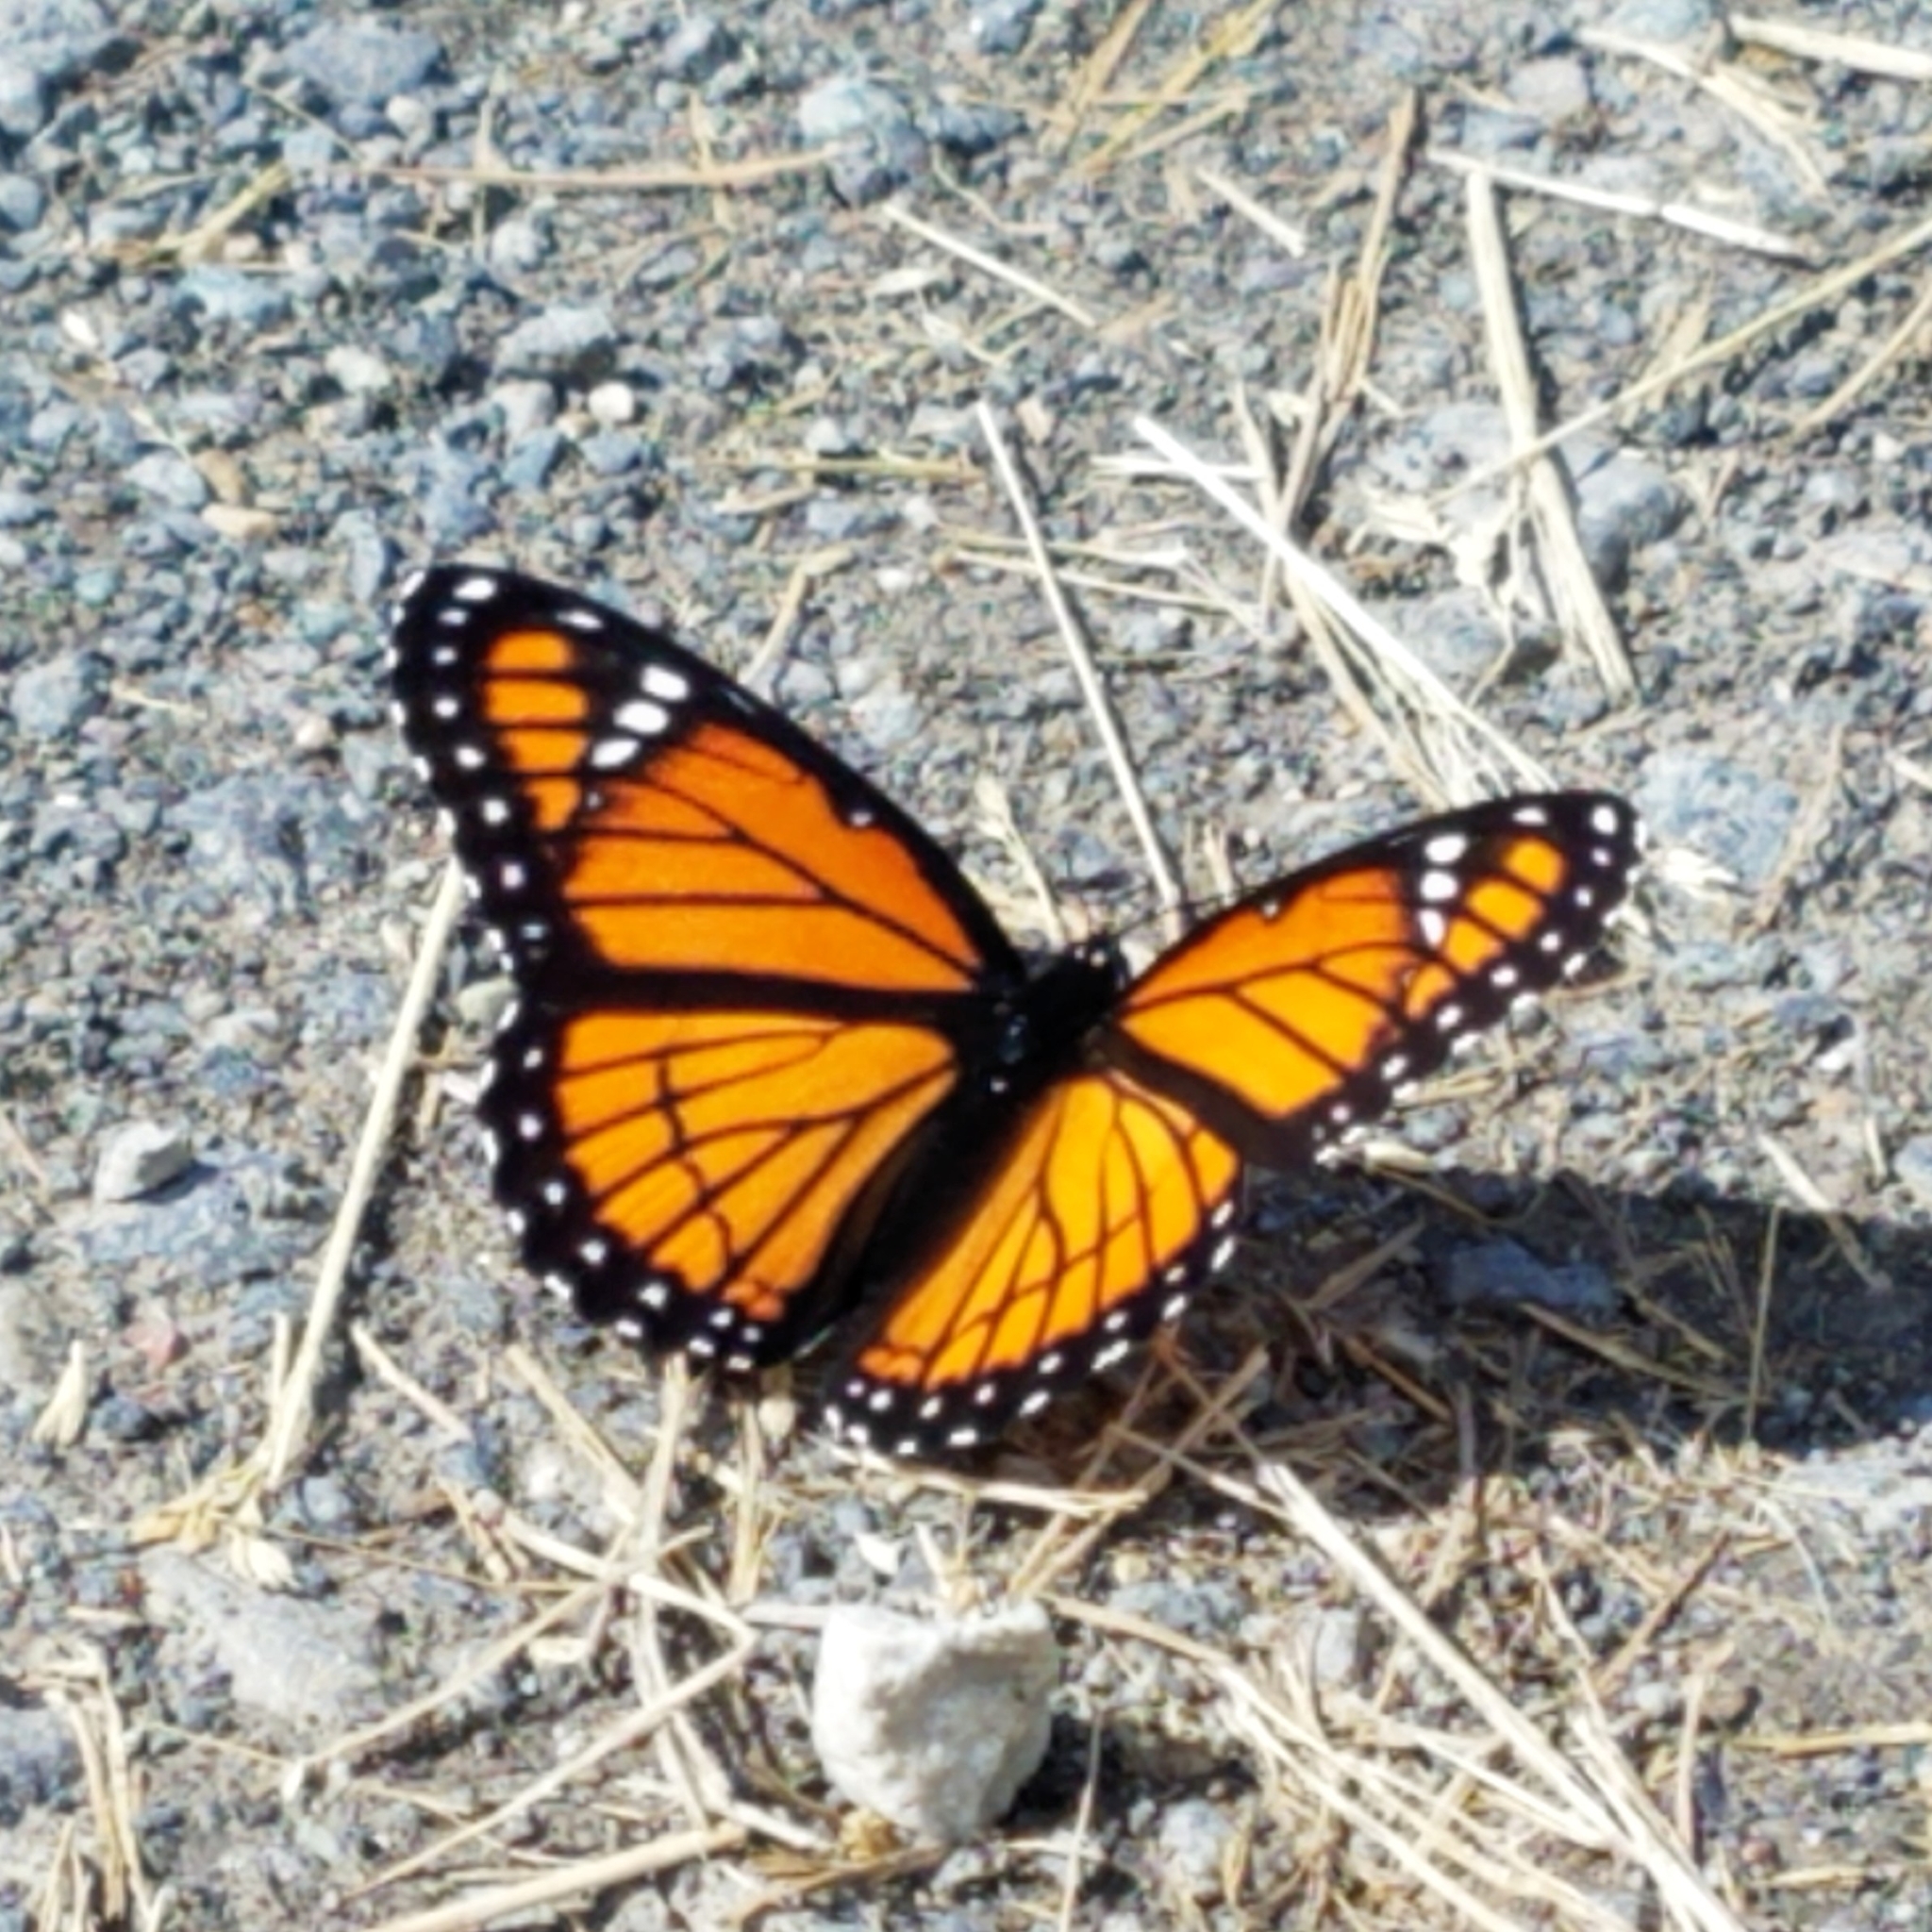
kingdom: Animalia
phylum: Arthropoda
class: Insecta
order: Lepidoptera
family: Nymphalidae
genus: Limenitis
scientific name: Limenitis archippus
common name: Viceroy
